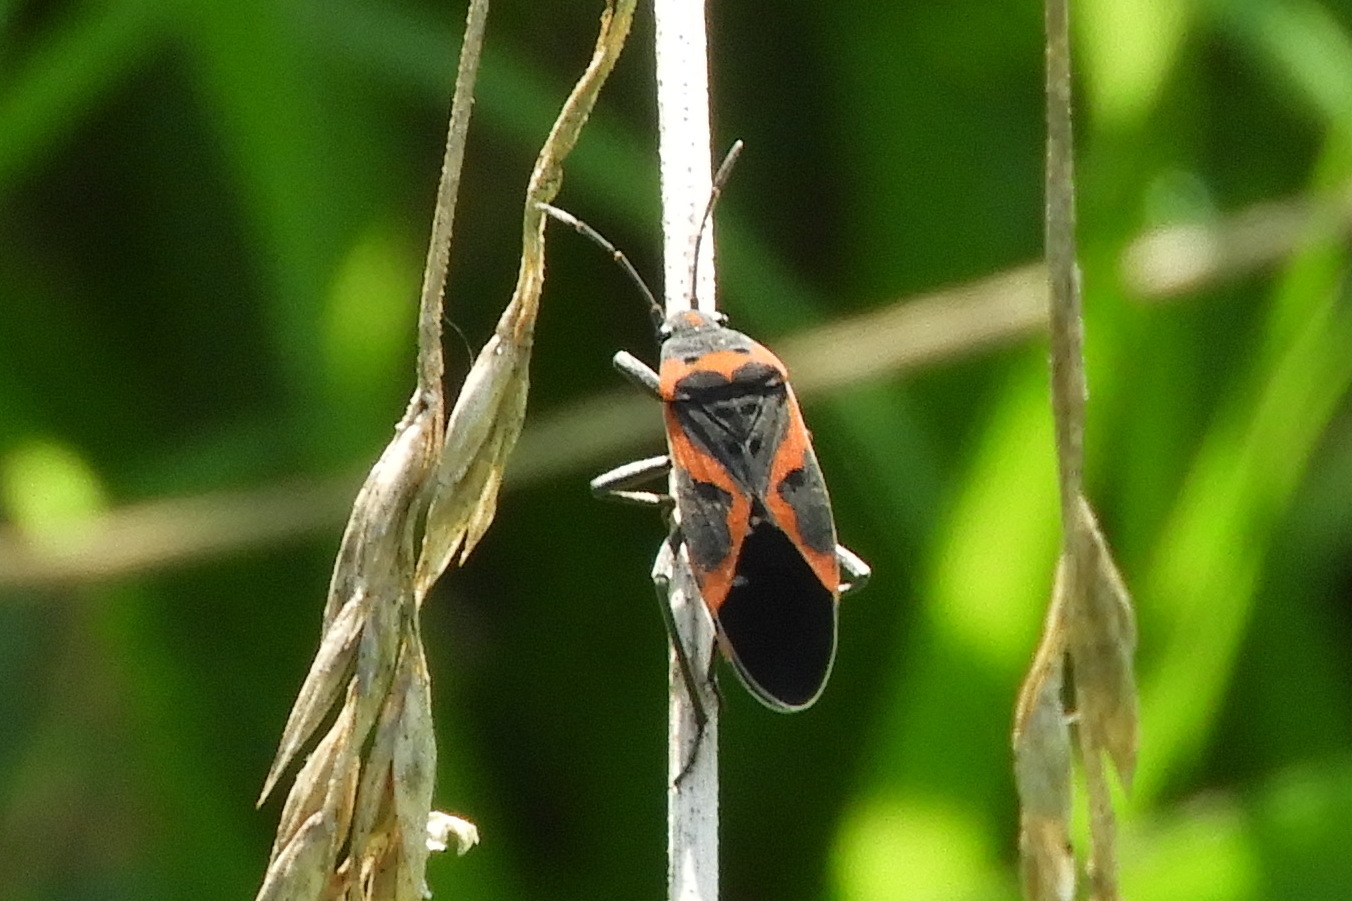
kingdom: Animalia
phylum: Arthropoda
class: Insecta
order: Hemiptera
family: Lygaeidae
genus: Lygaeus
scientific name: Lygaeus kalmii
